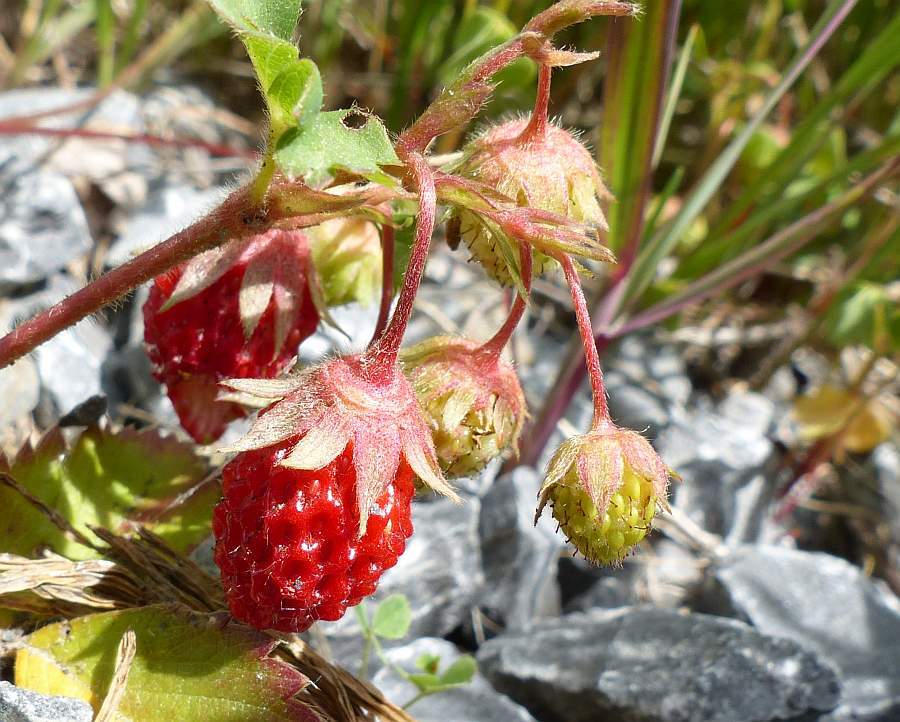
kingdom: Plantae
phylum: Tracheophyta
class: Magnoliopsida
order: Rosales
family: Rosaceae
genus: Fragaria
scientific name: Fragaria vesca
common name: Wild strawberry
